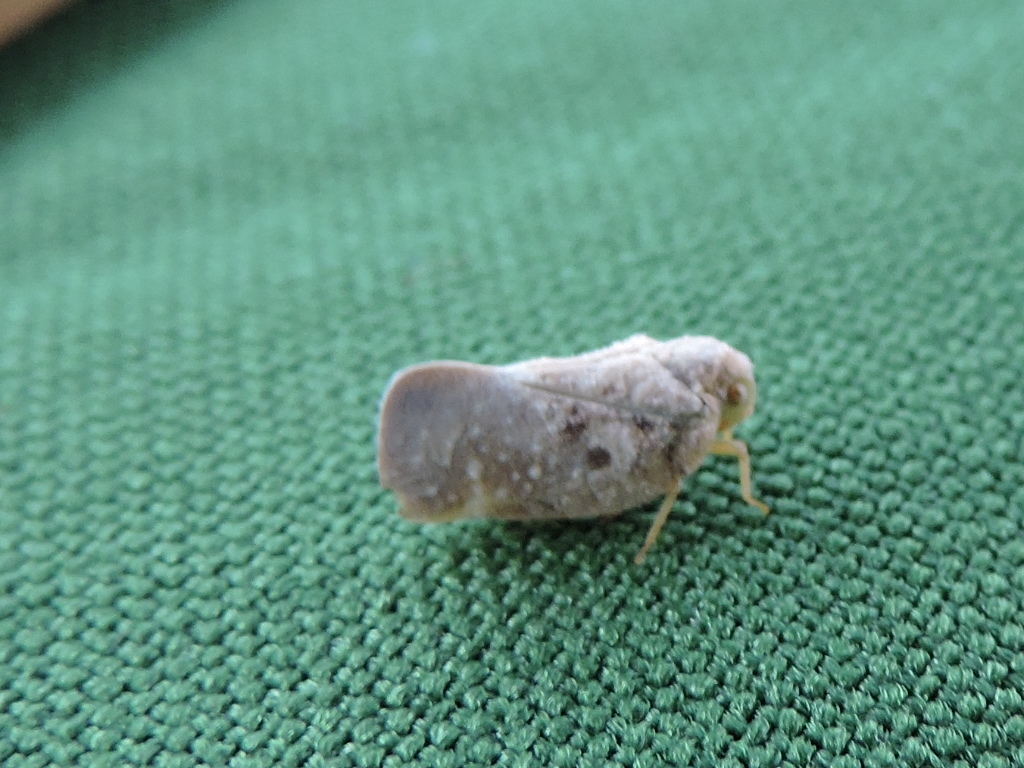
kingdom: Animalia
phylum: Arthropoda
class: Insecta
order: Hemiptera
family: Flatidae
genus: Metcalfa
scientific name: Metcalfa pruinosa
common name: Citrus flatid planthopper
